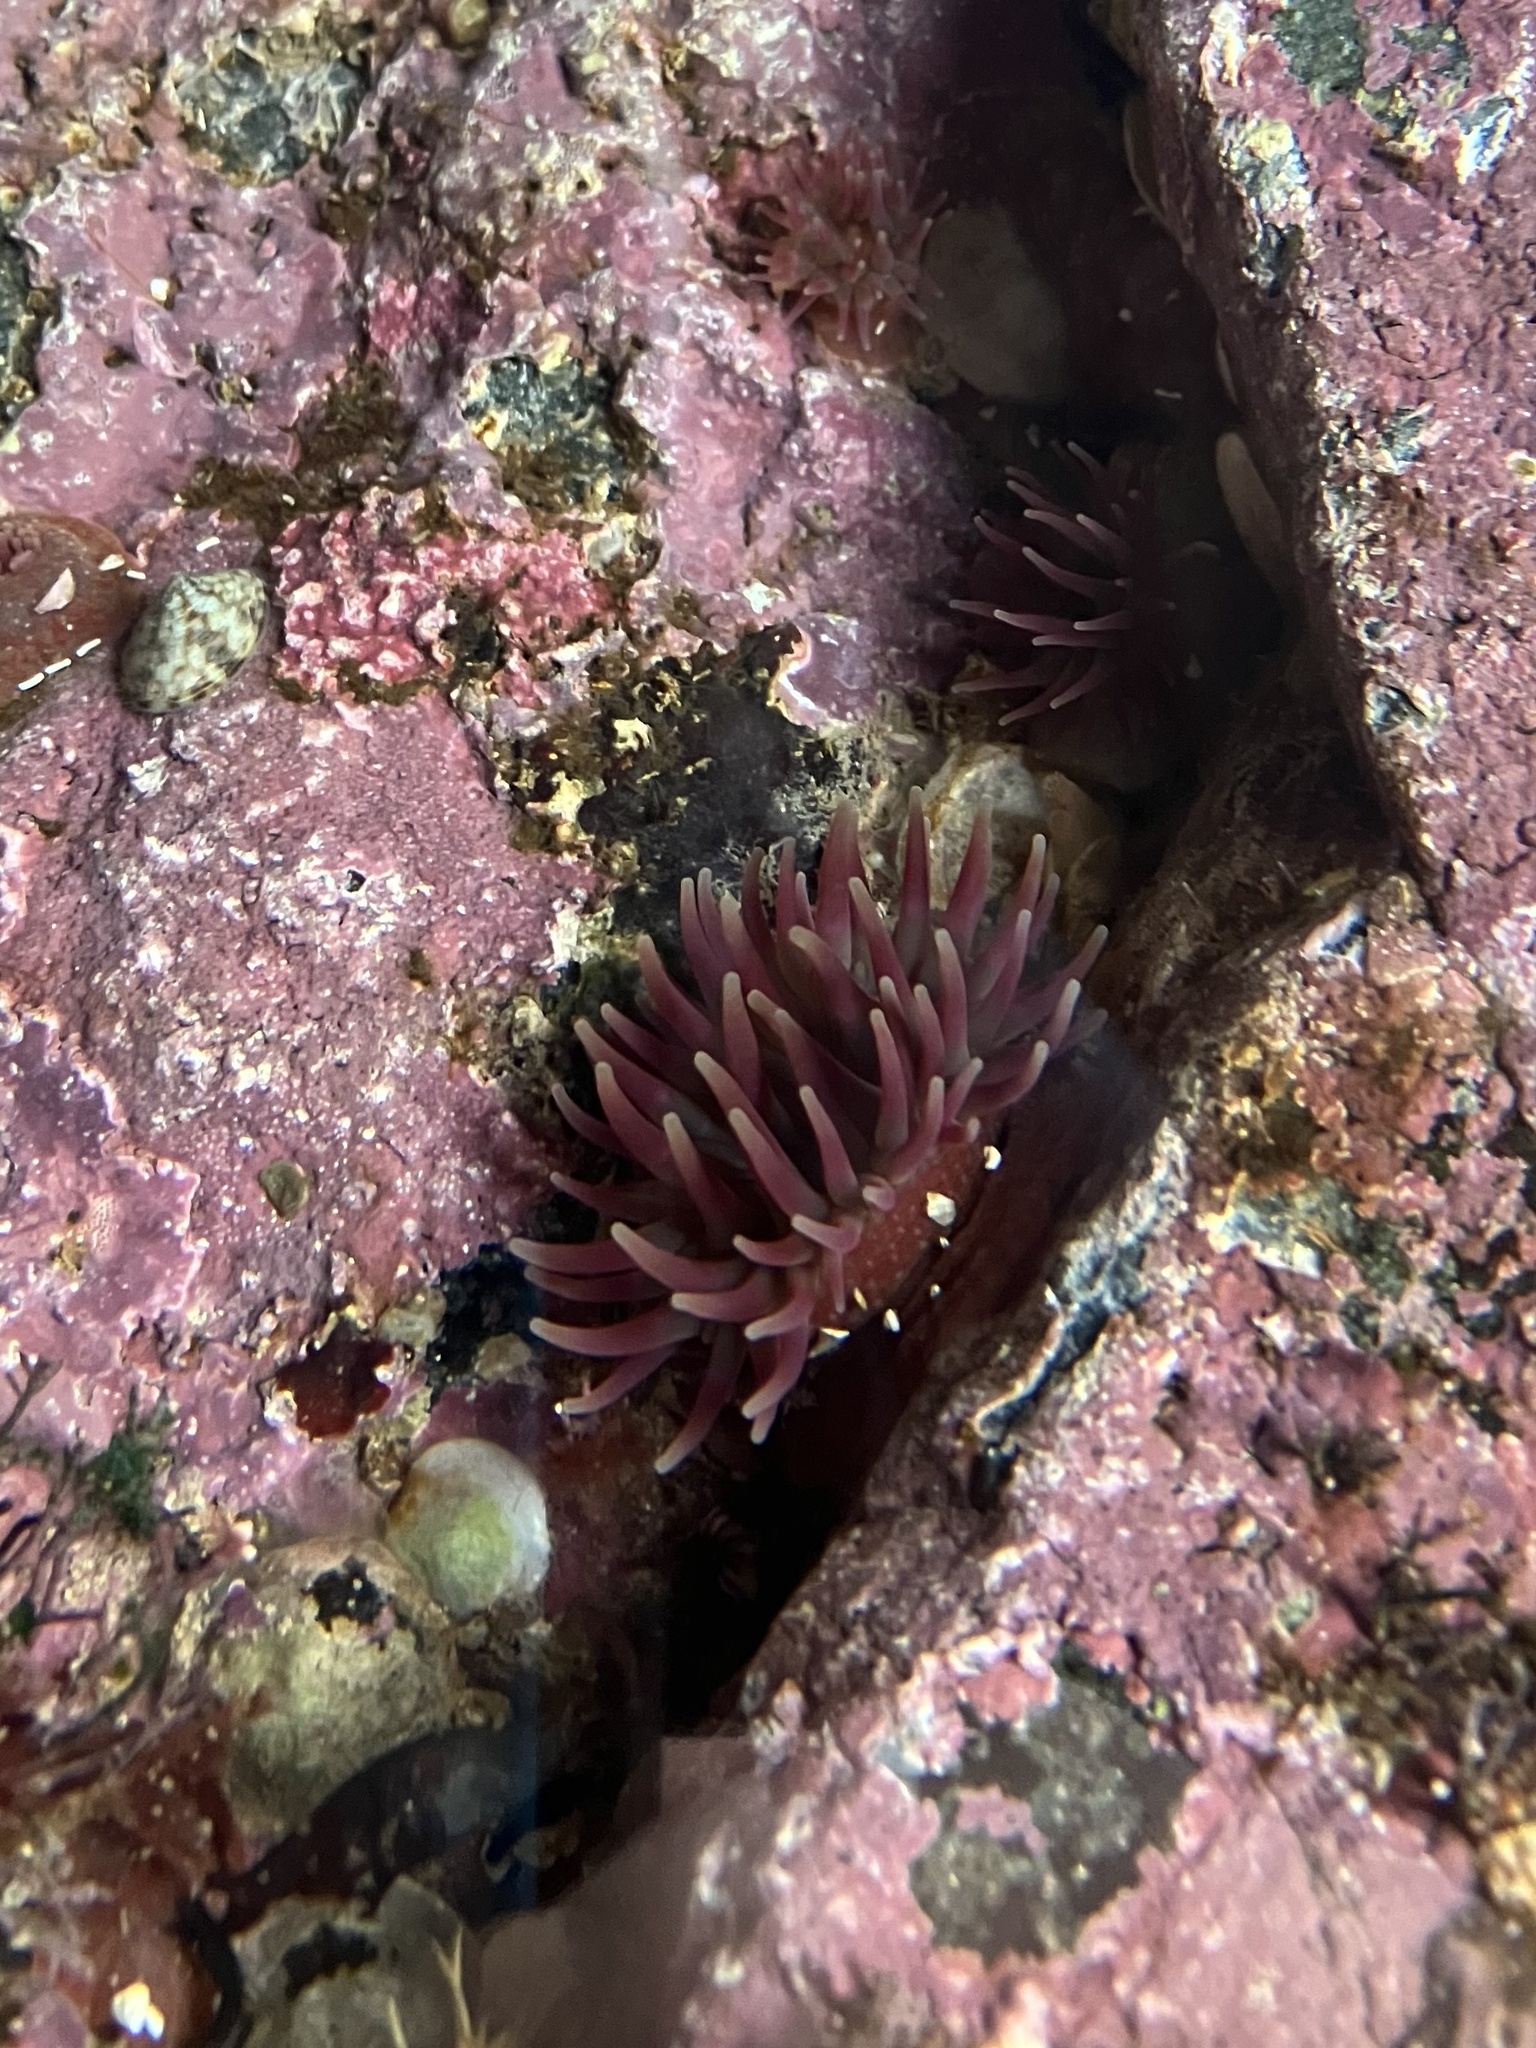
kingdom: Animalia
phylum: Cnidaria
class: Anthozoa
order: Actiniaria
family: Actiniidae
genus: Urticina
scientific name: Urticina crassicornis
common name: Mottled anemone
